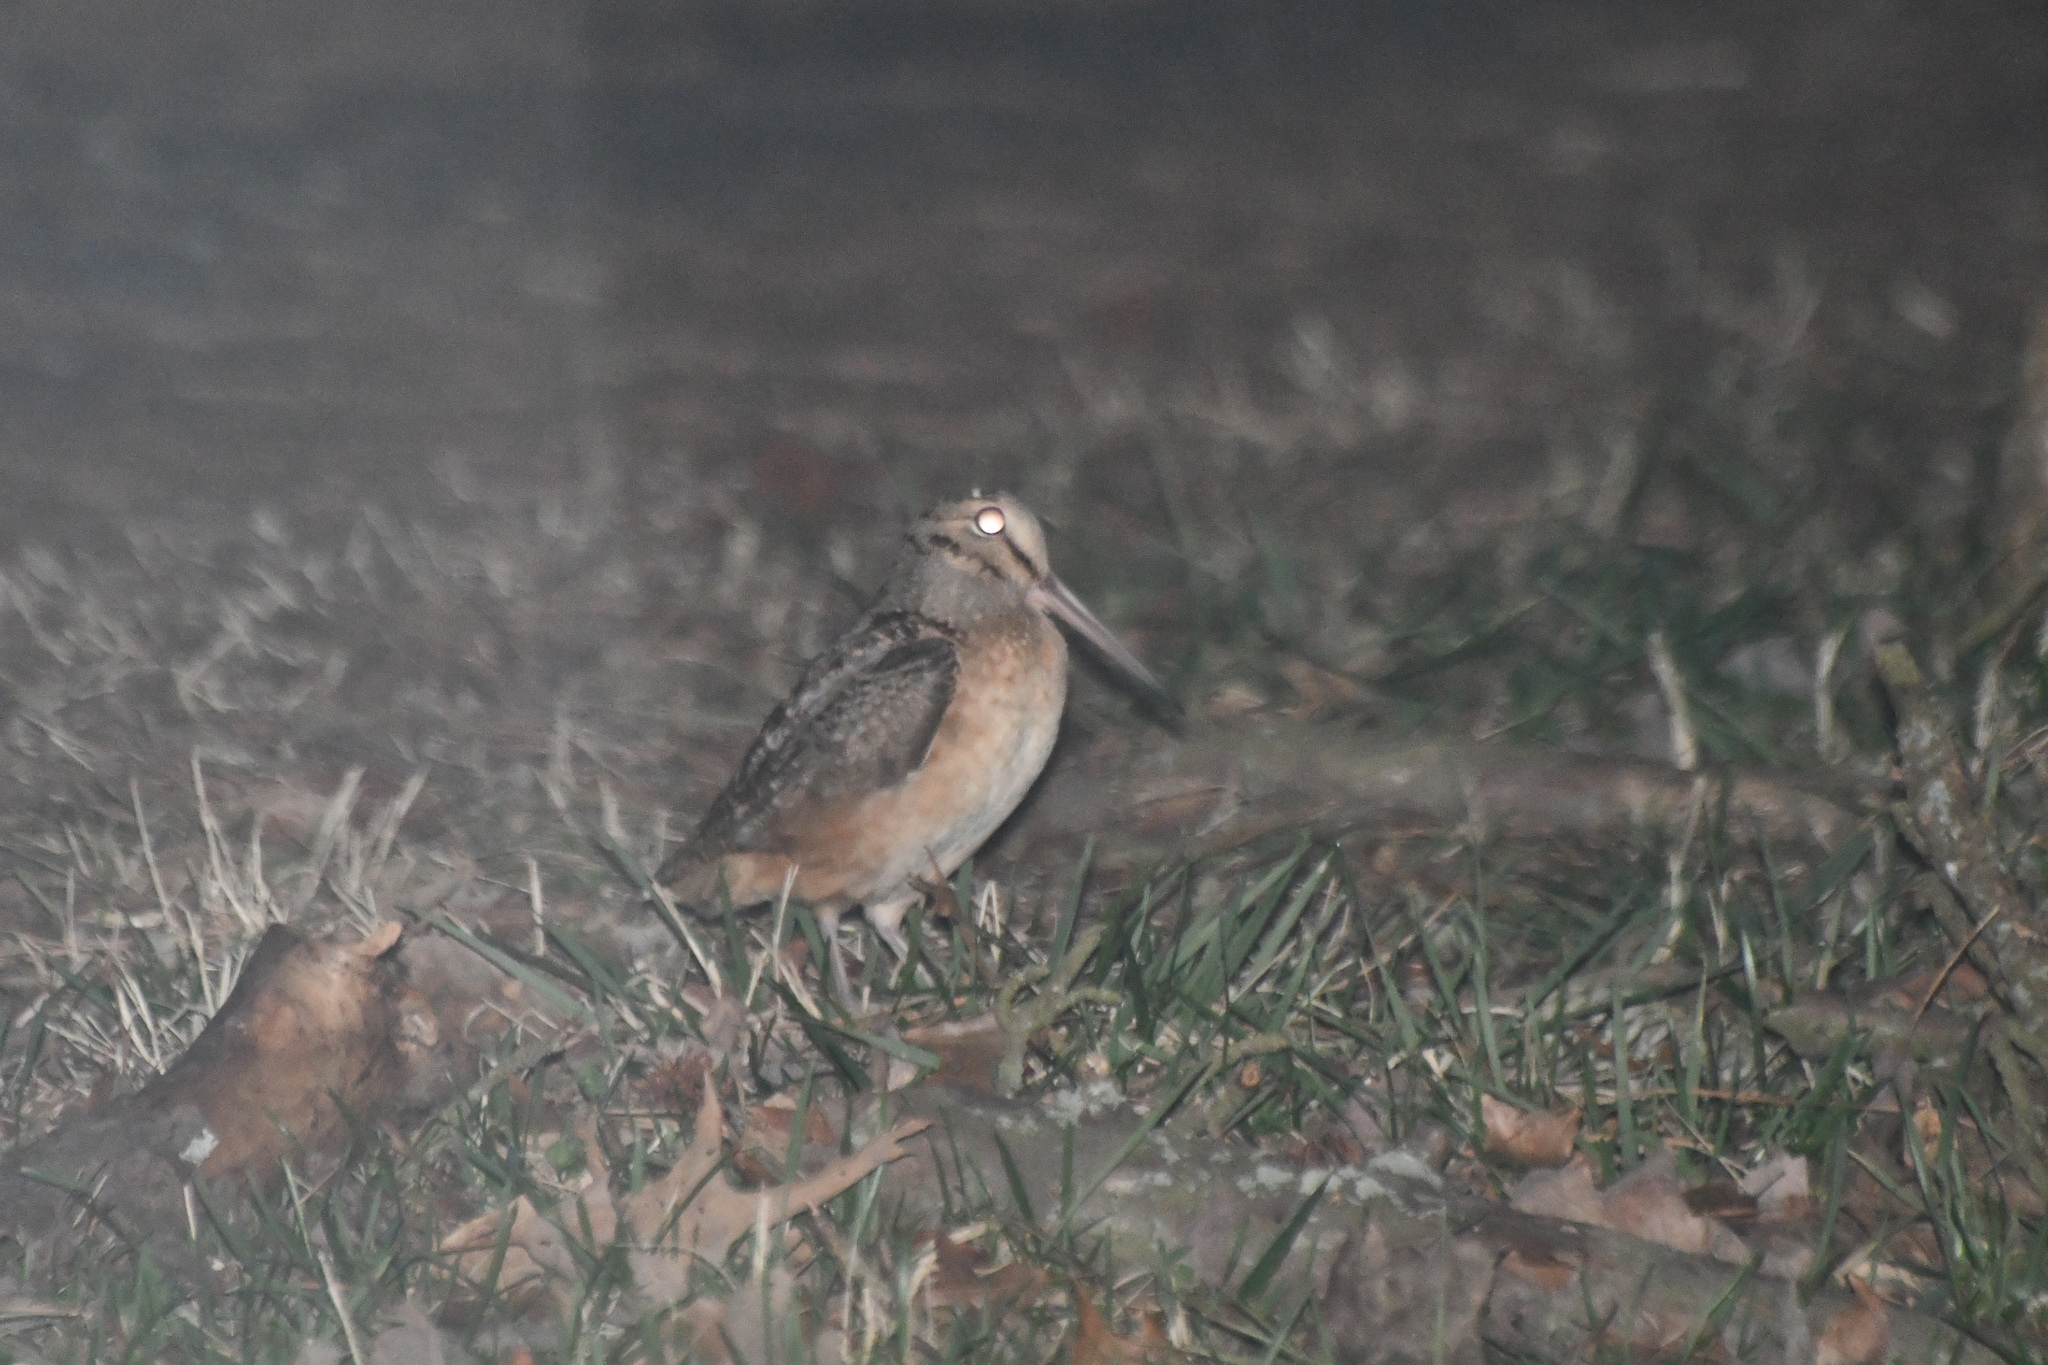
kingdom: Animalia
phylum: Chordata
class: Aves
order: Charadriiformes
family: Scolopacidae
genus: Scolopax
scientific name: Scolopax minor
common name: American woodcock
